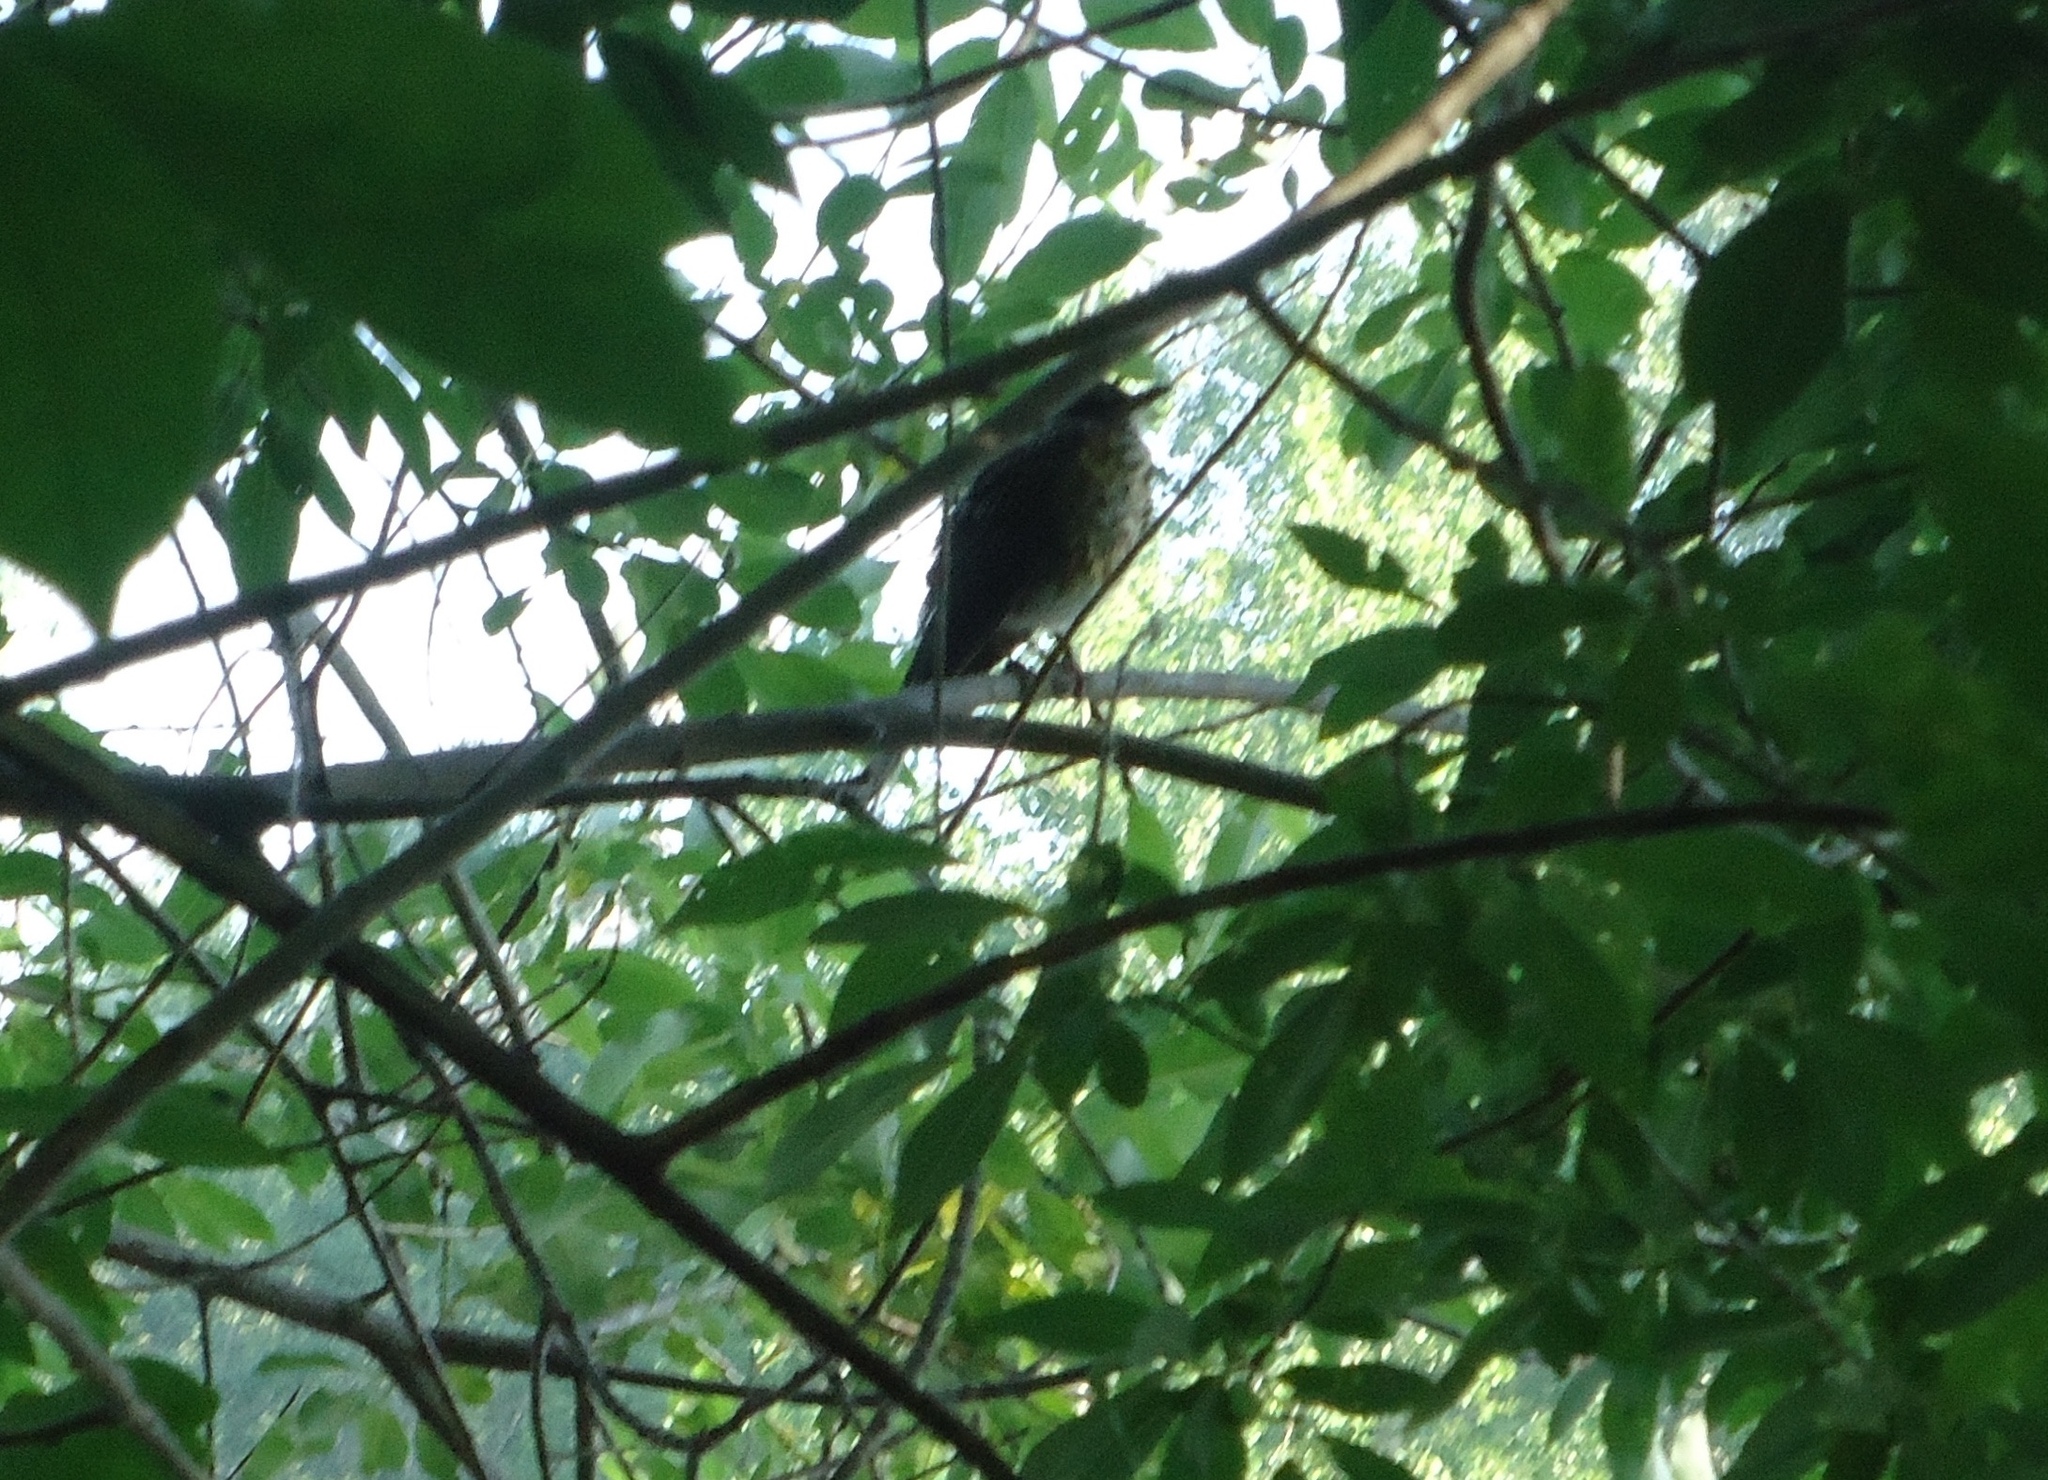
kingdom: Animalia
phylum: Chordata
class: Aves
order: Passeriformes
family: Turdidae
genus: Turdus
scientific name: Turdus migratorius
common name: American robin
